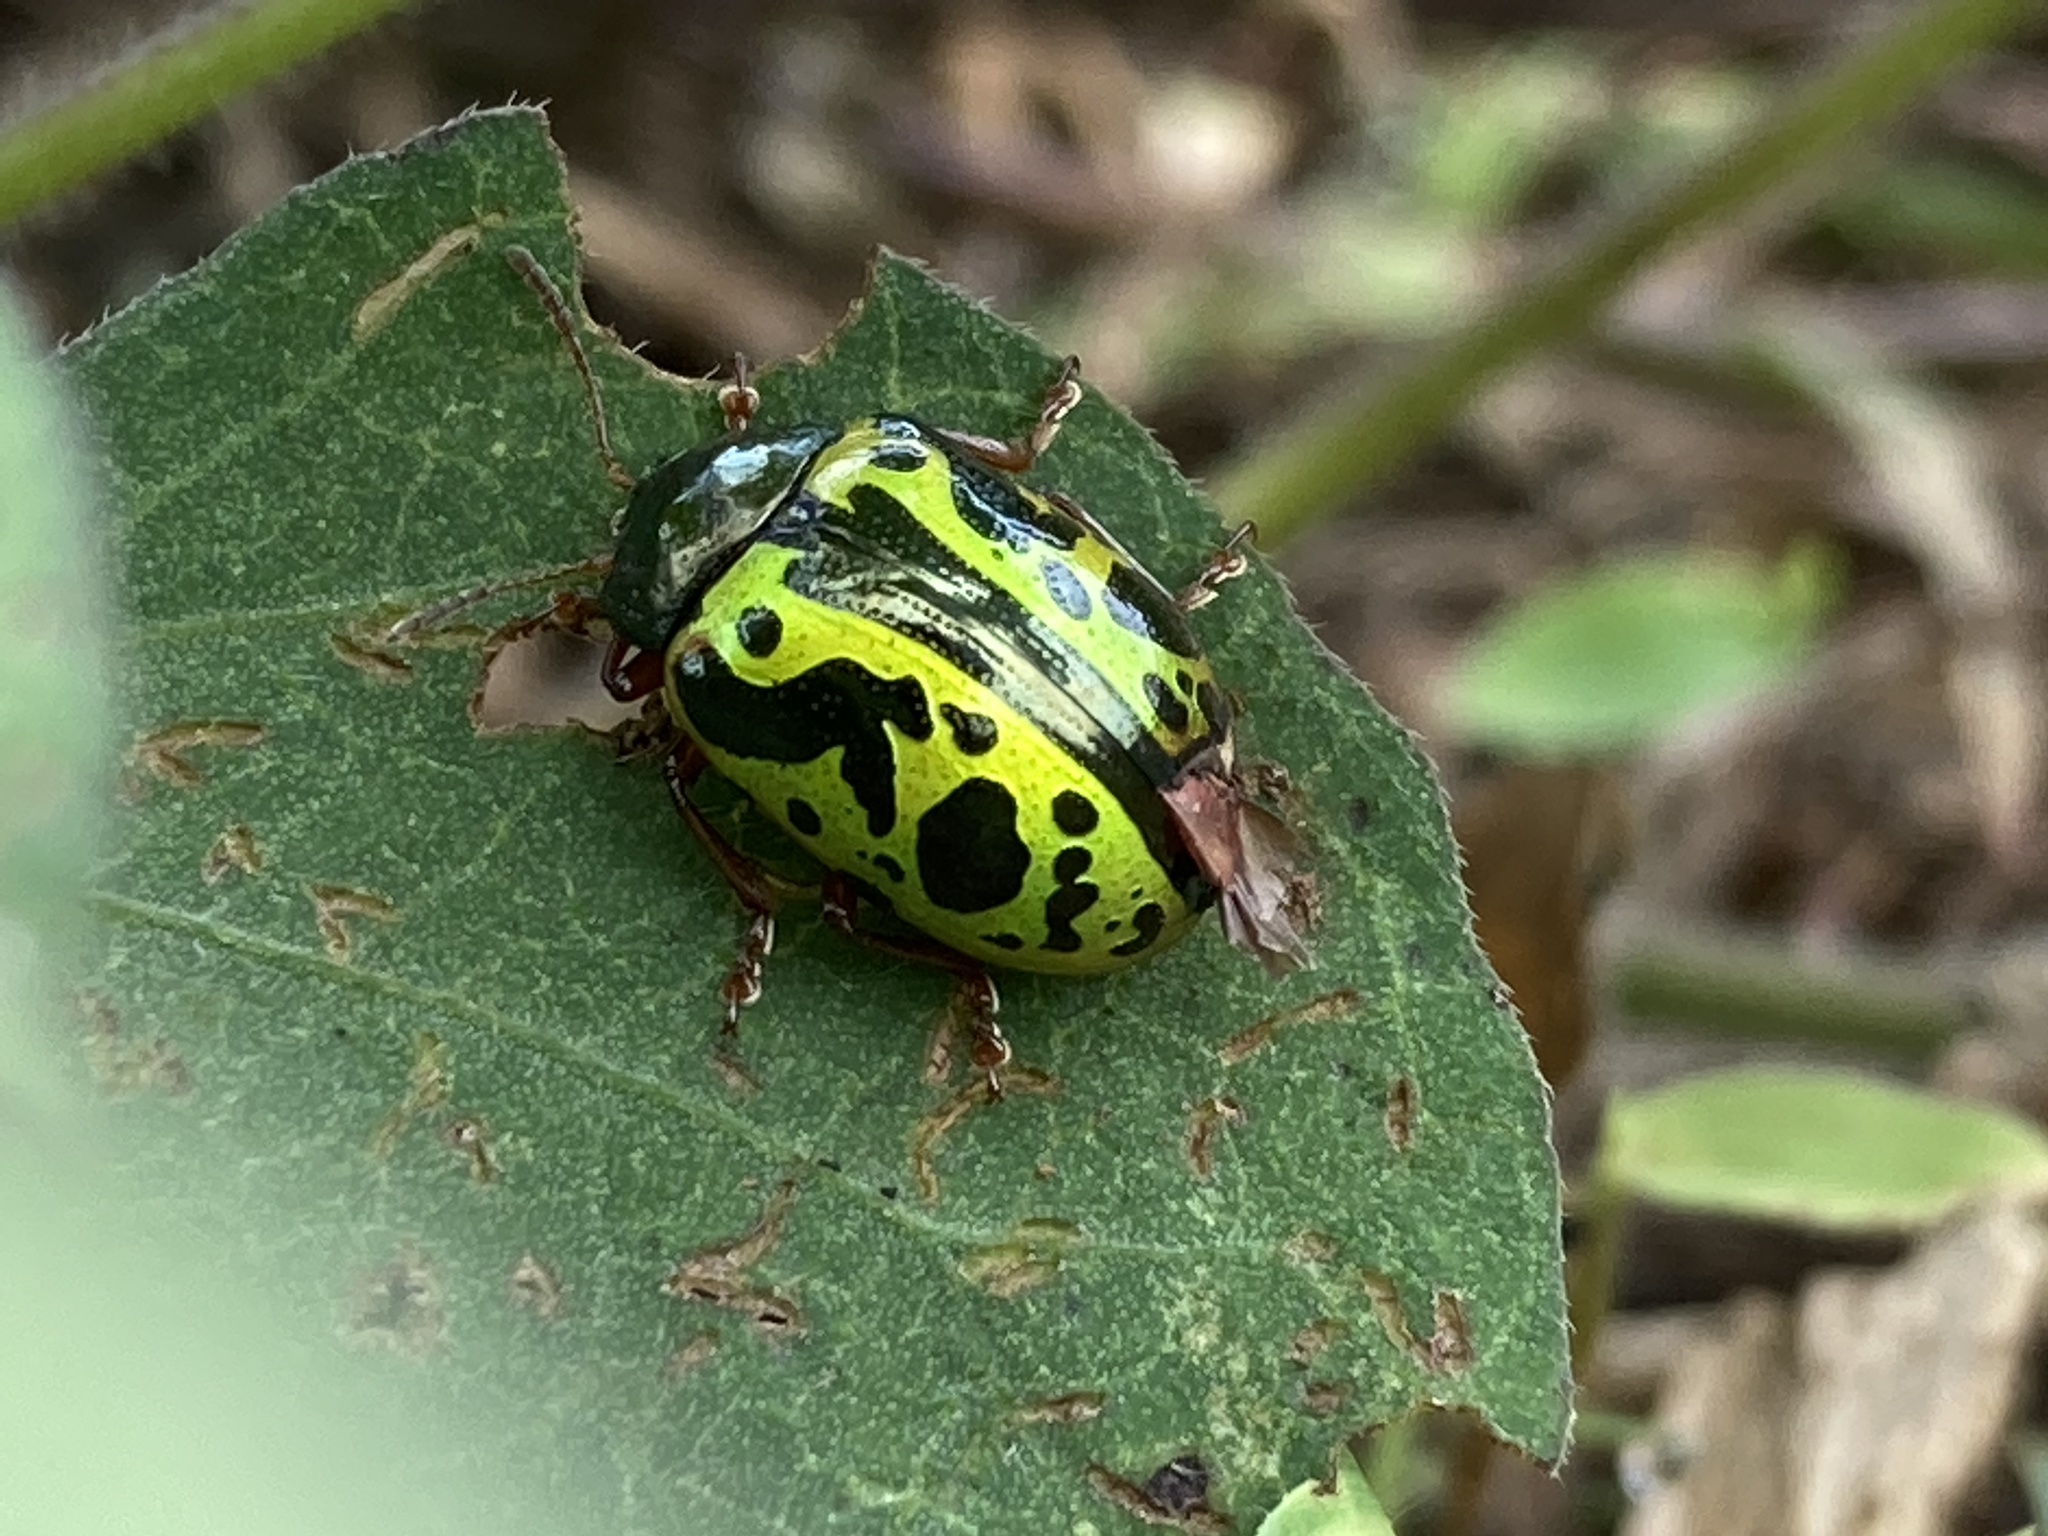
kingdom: Animalia
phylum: Arthropoda
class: Insecta
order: Coleoptera
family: Chrysomelidae
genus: Calligrapha
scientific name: Calligrapha fulvipes
